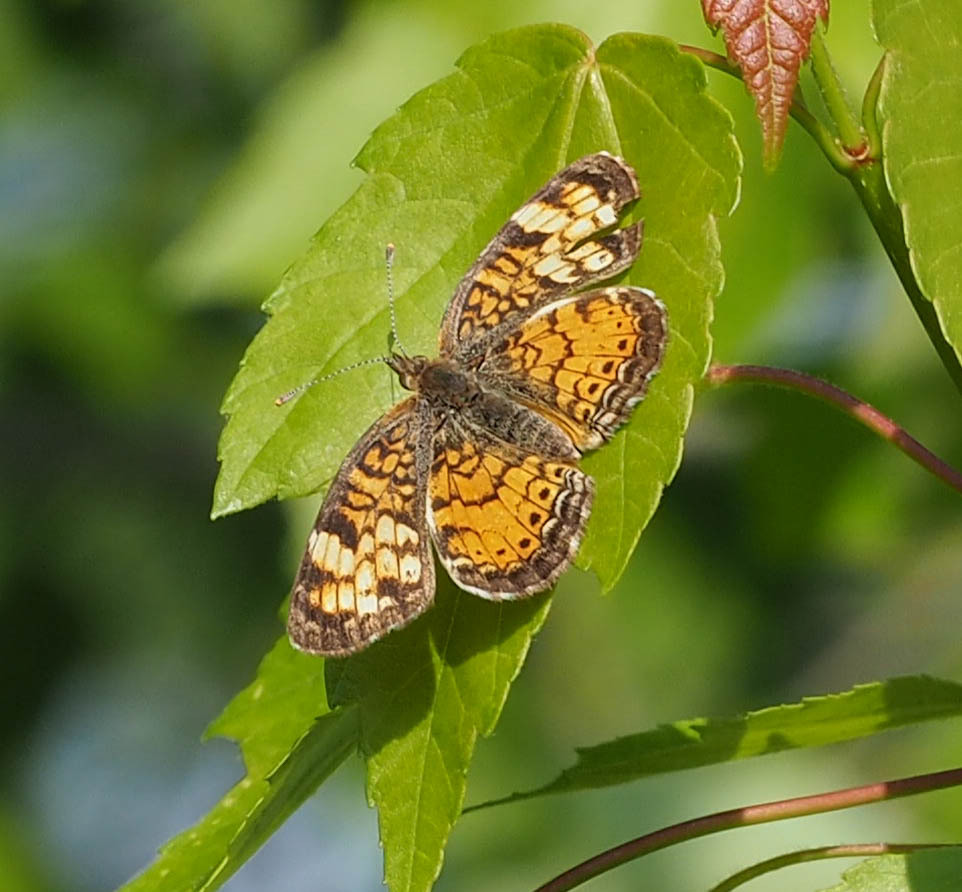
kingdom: Animalia
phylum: Arthropoda
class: Insecta
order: Lepidoptera
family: Nymphalidae
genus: Phyciodes
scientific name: Phyciodes tharos
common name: Pearl crescent
